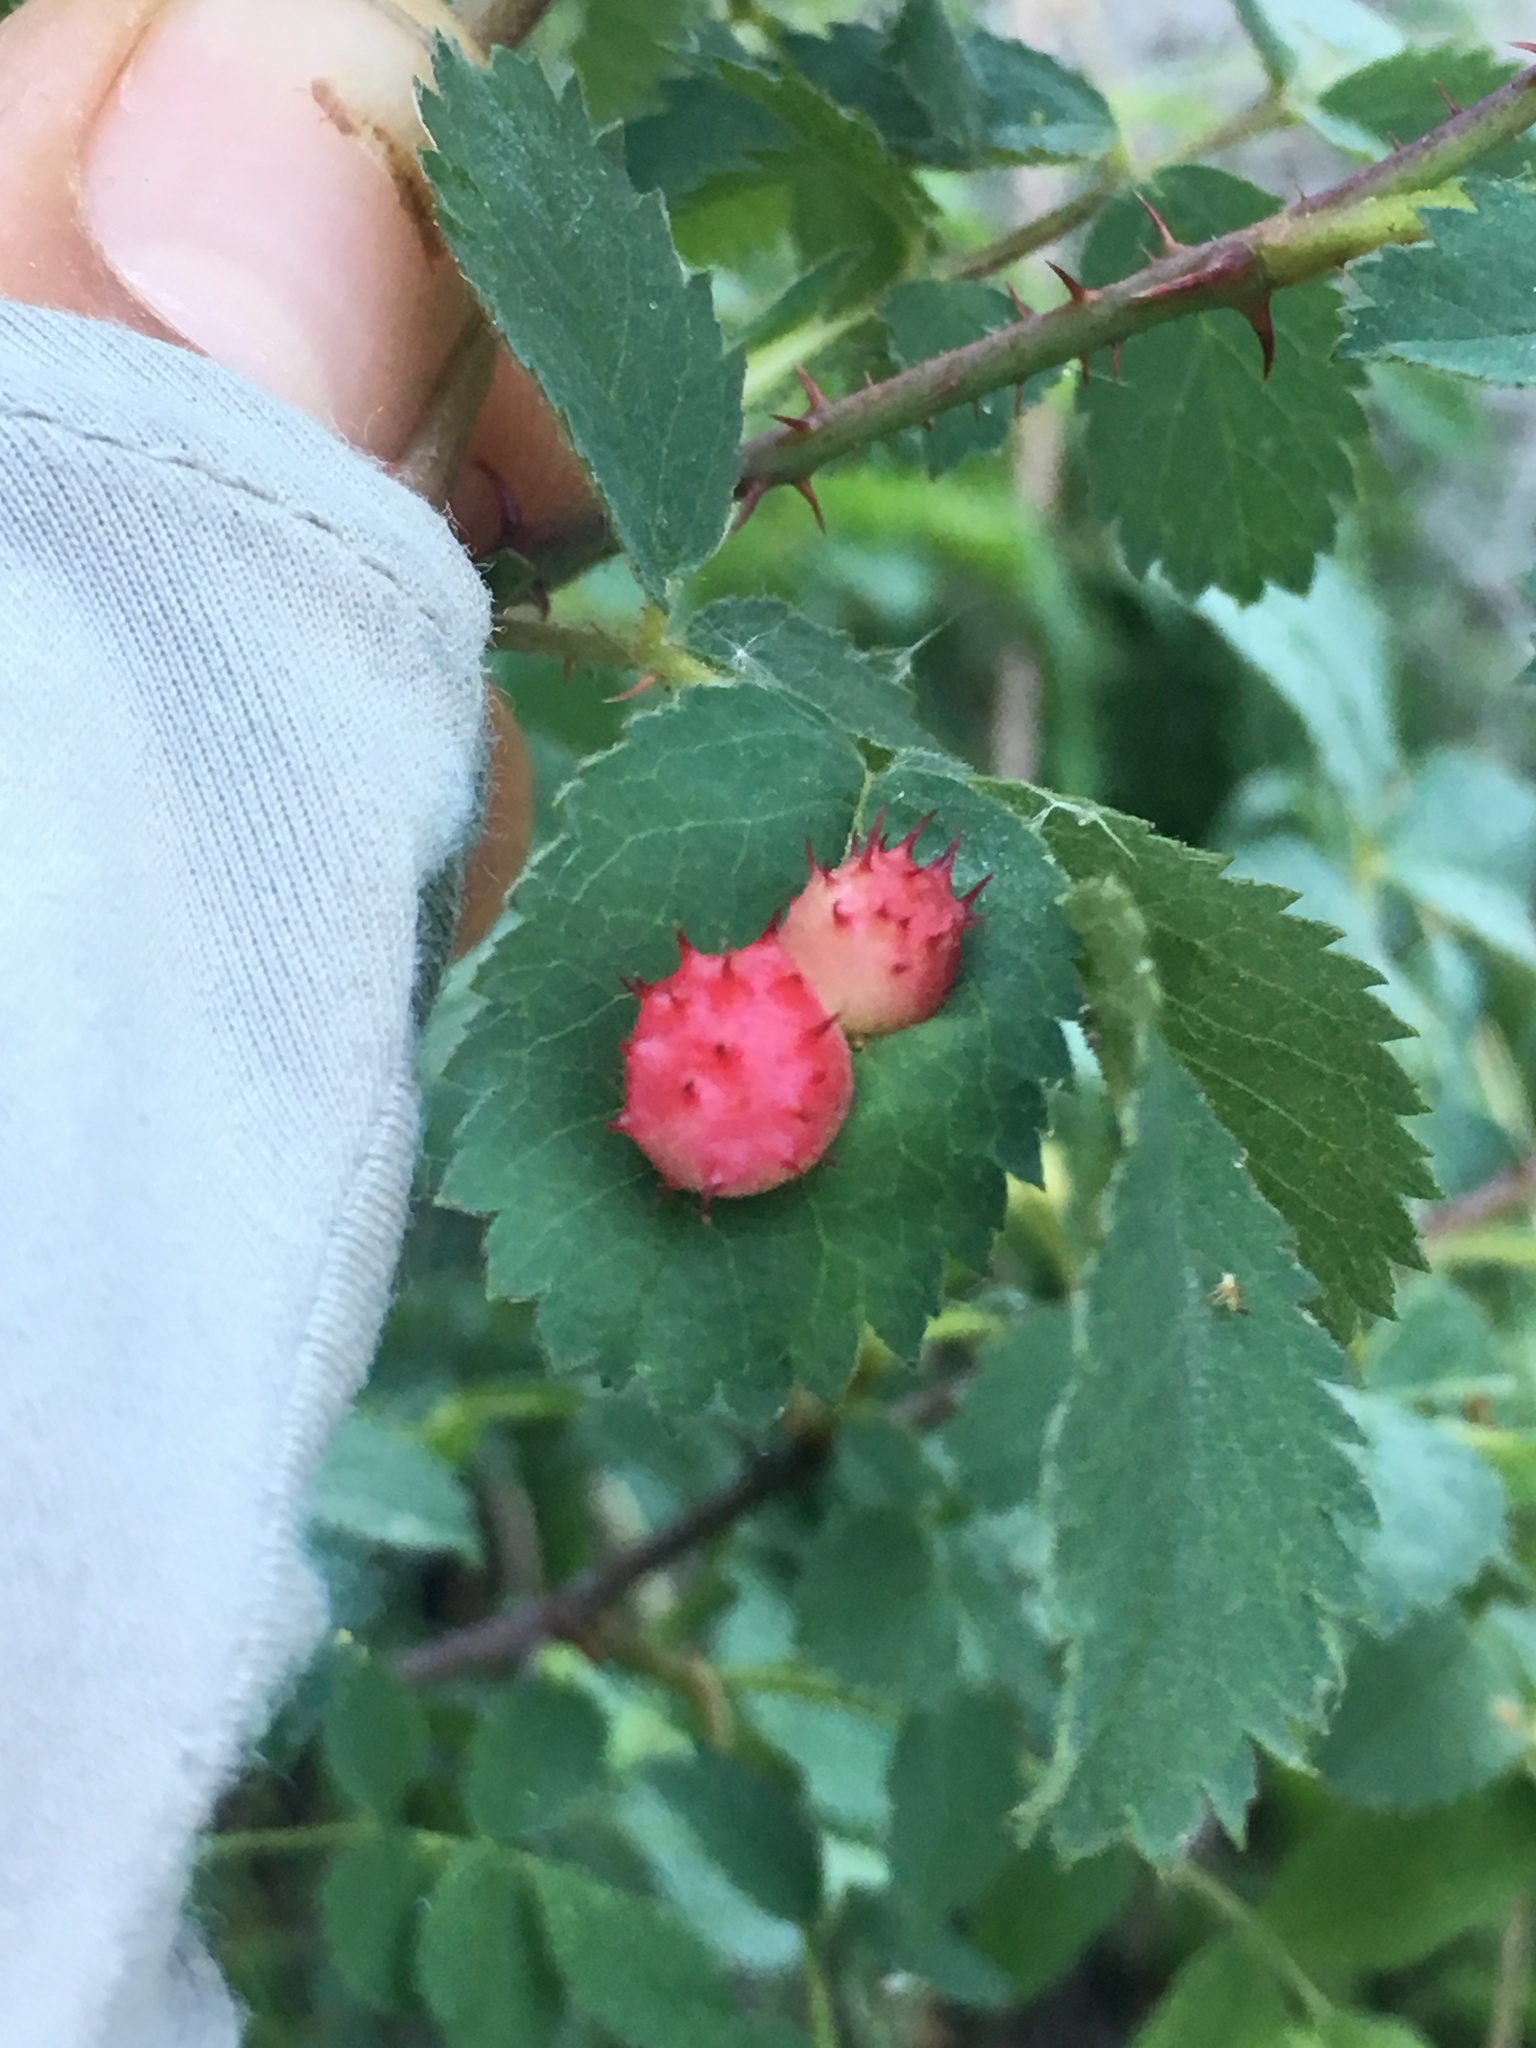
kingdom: Animalia
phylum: Arthropoda
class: Insecta
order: Hymenoptera
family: Cynipidae
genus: Diplolepis
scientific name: Diplolepis polita
